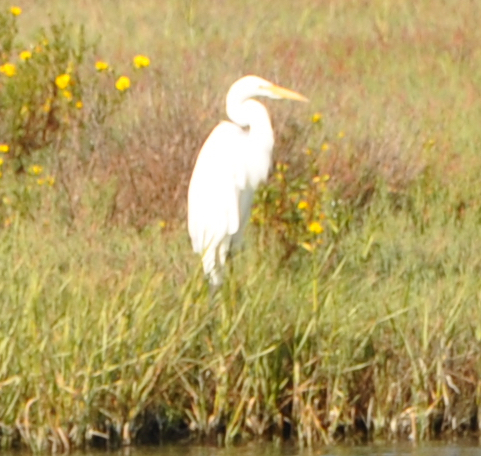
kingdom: Animalia
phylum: Chordata
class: Aves
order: Pelecaniformes
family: Ardeidae
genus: Ardea
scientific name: Ardea alba
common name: Great egret
